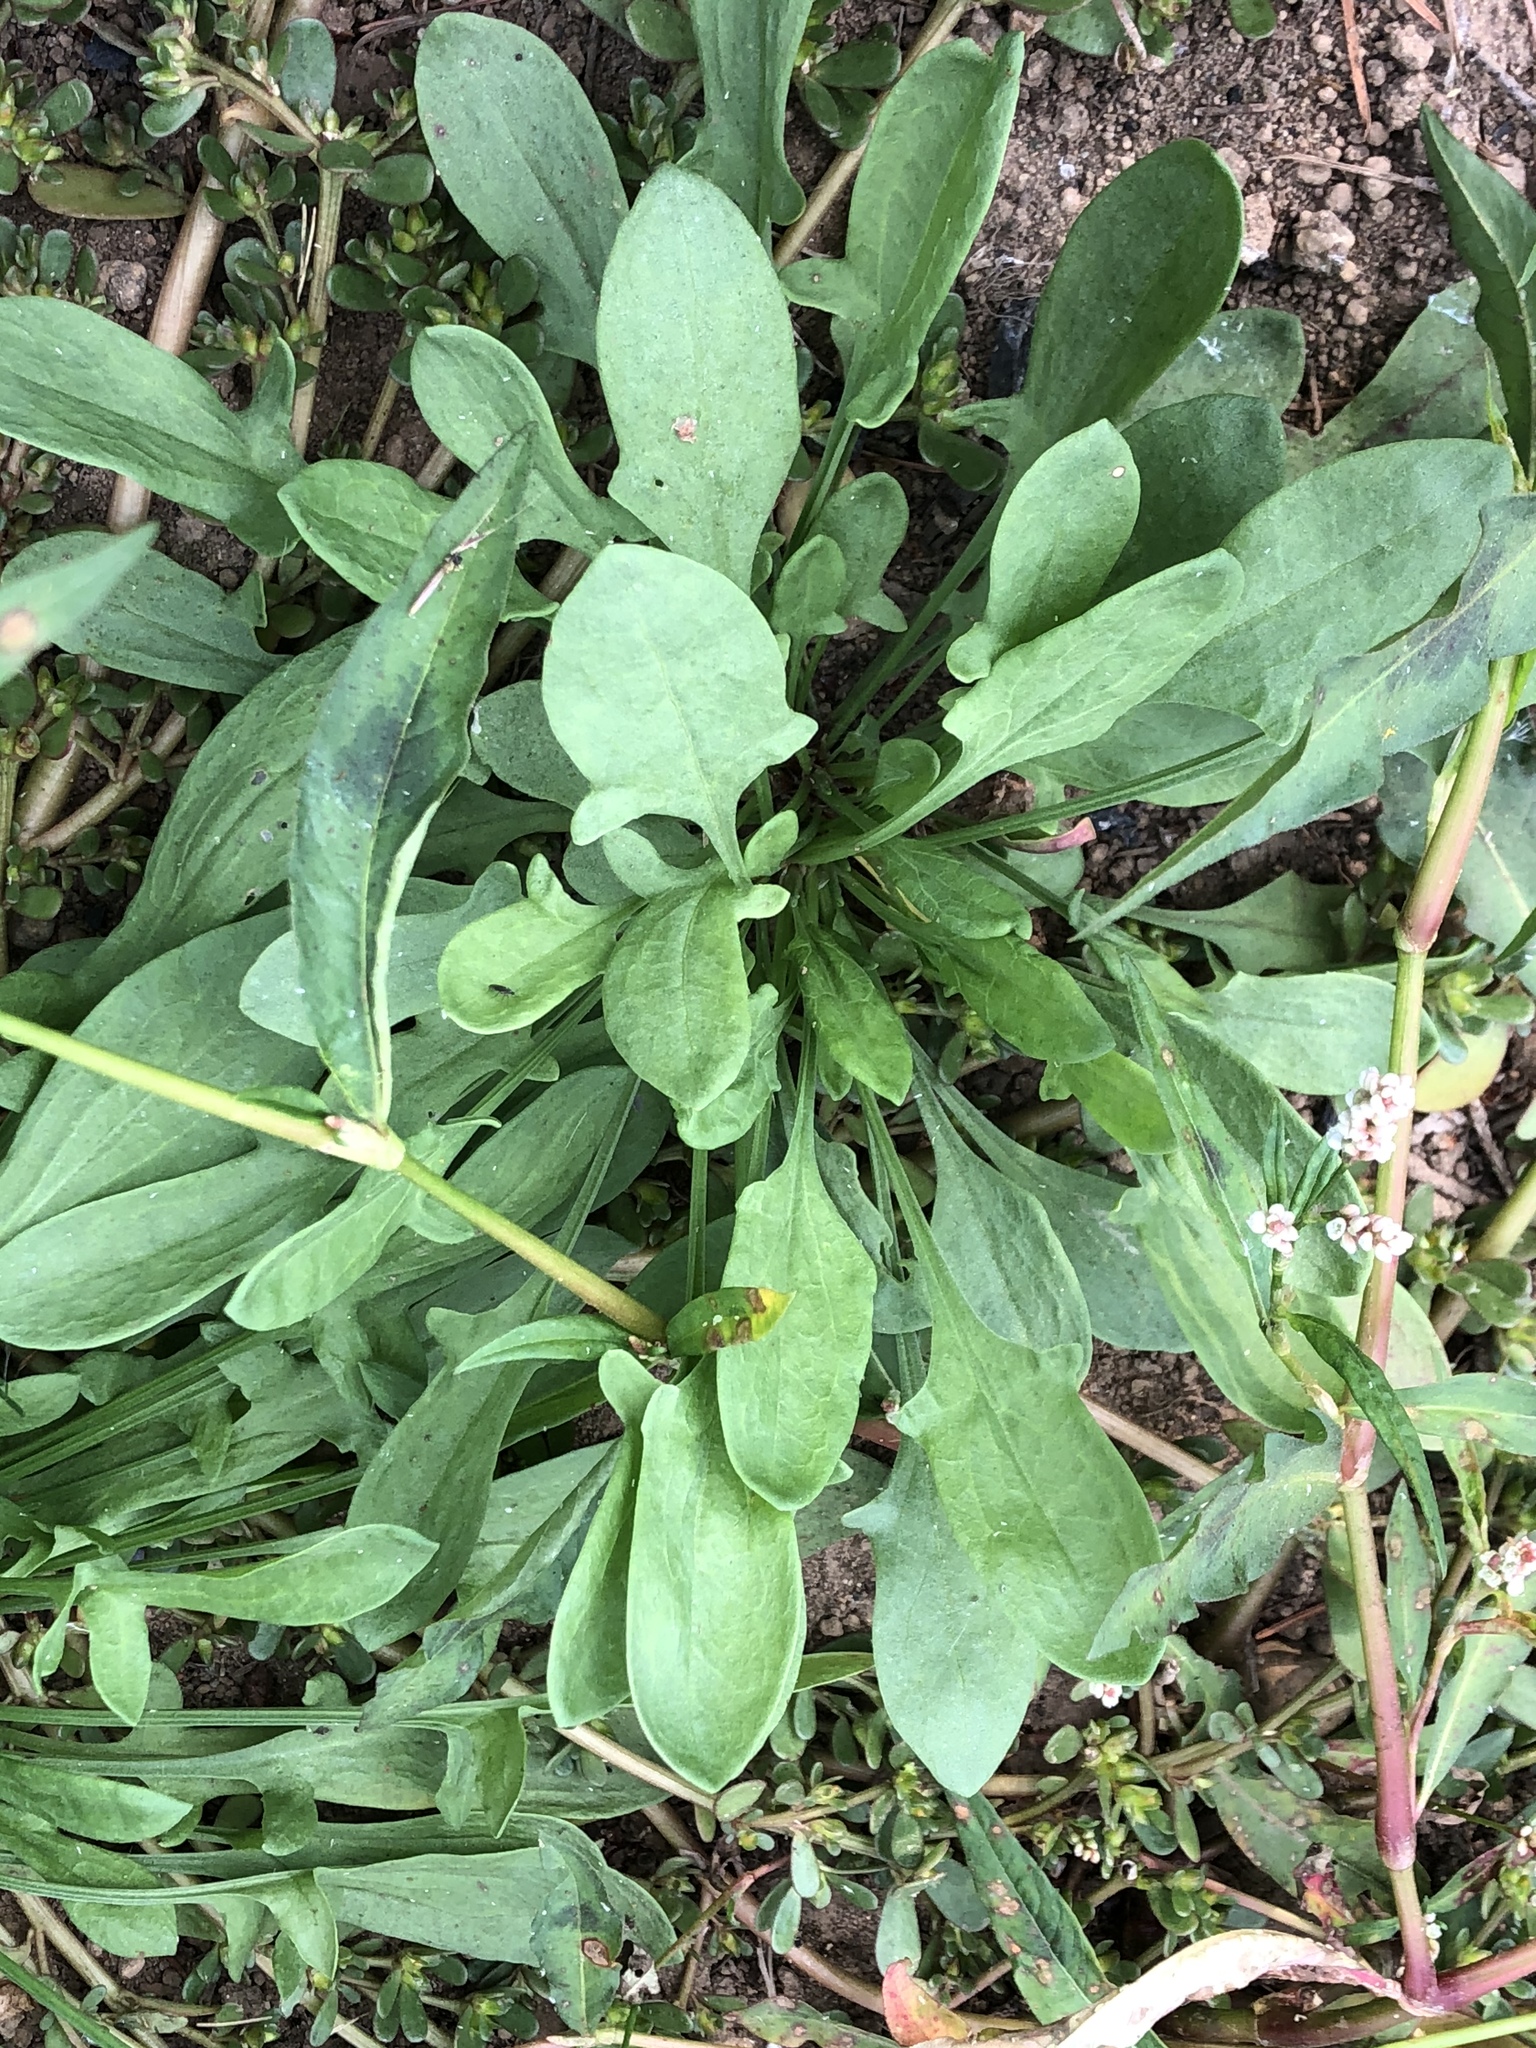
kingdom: Plantae
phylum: Tracheophyta
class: Magnoliopsida
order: Caryophyllales
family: Polygonaceae
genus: Rumex
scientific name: Rumex acetosella
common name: Common sheep sorrel
